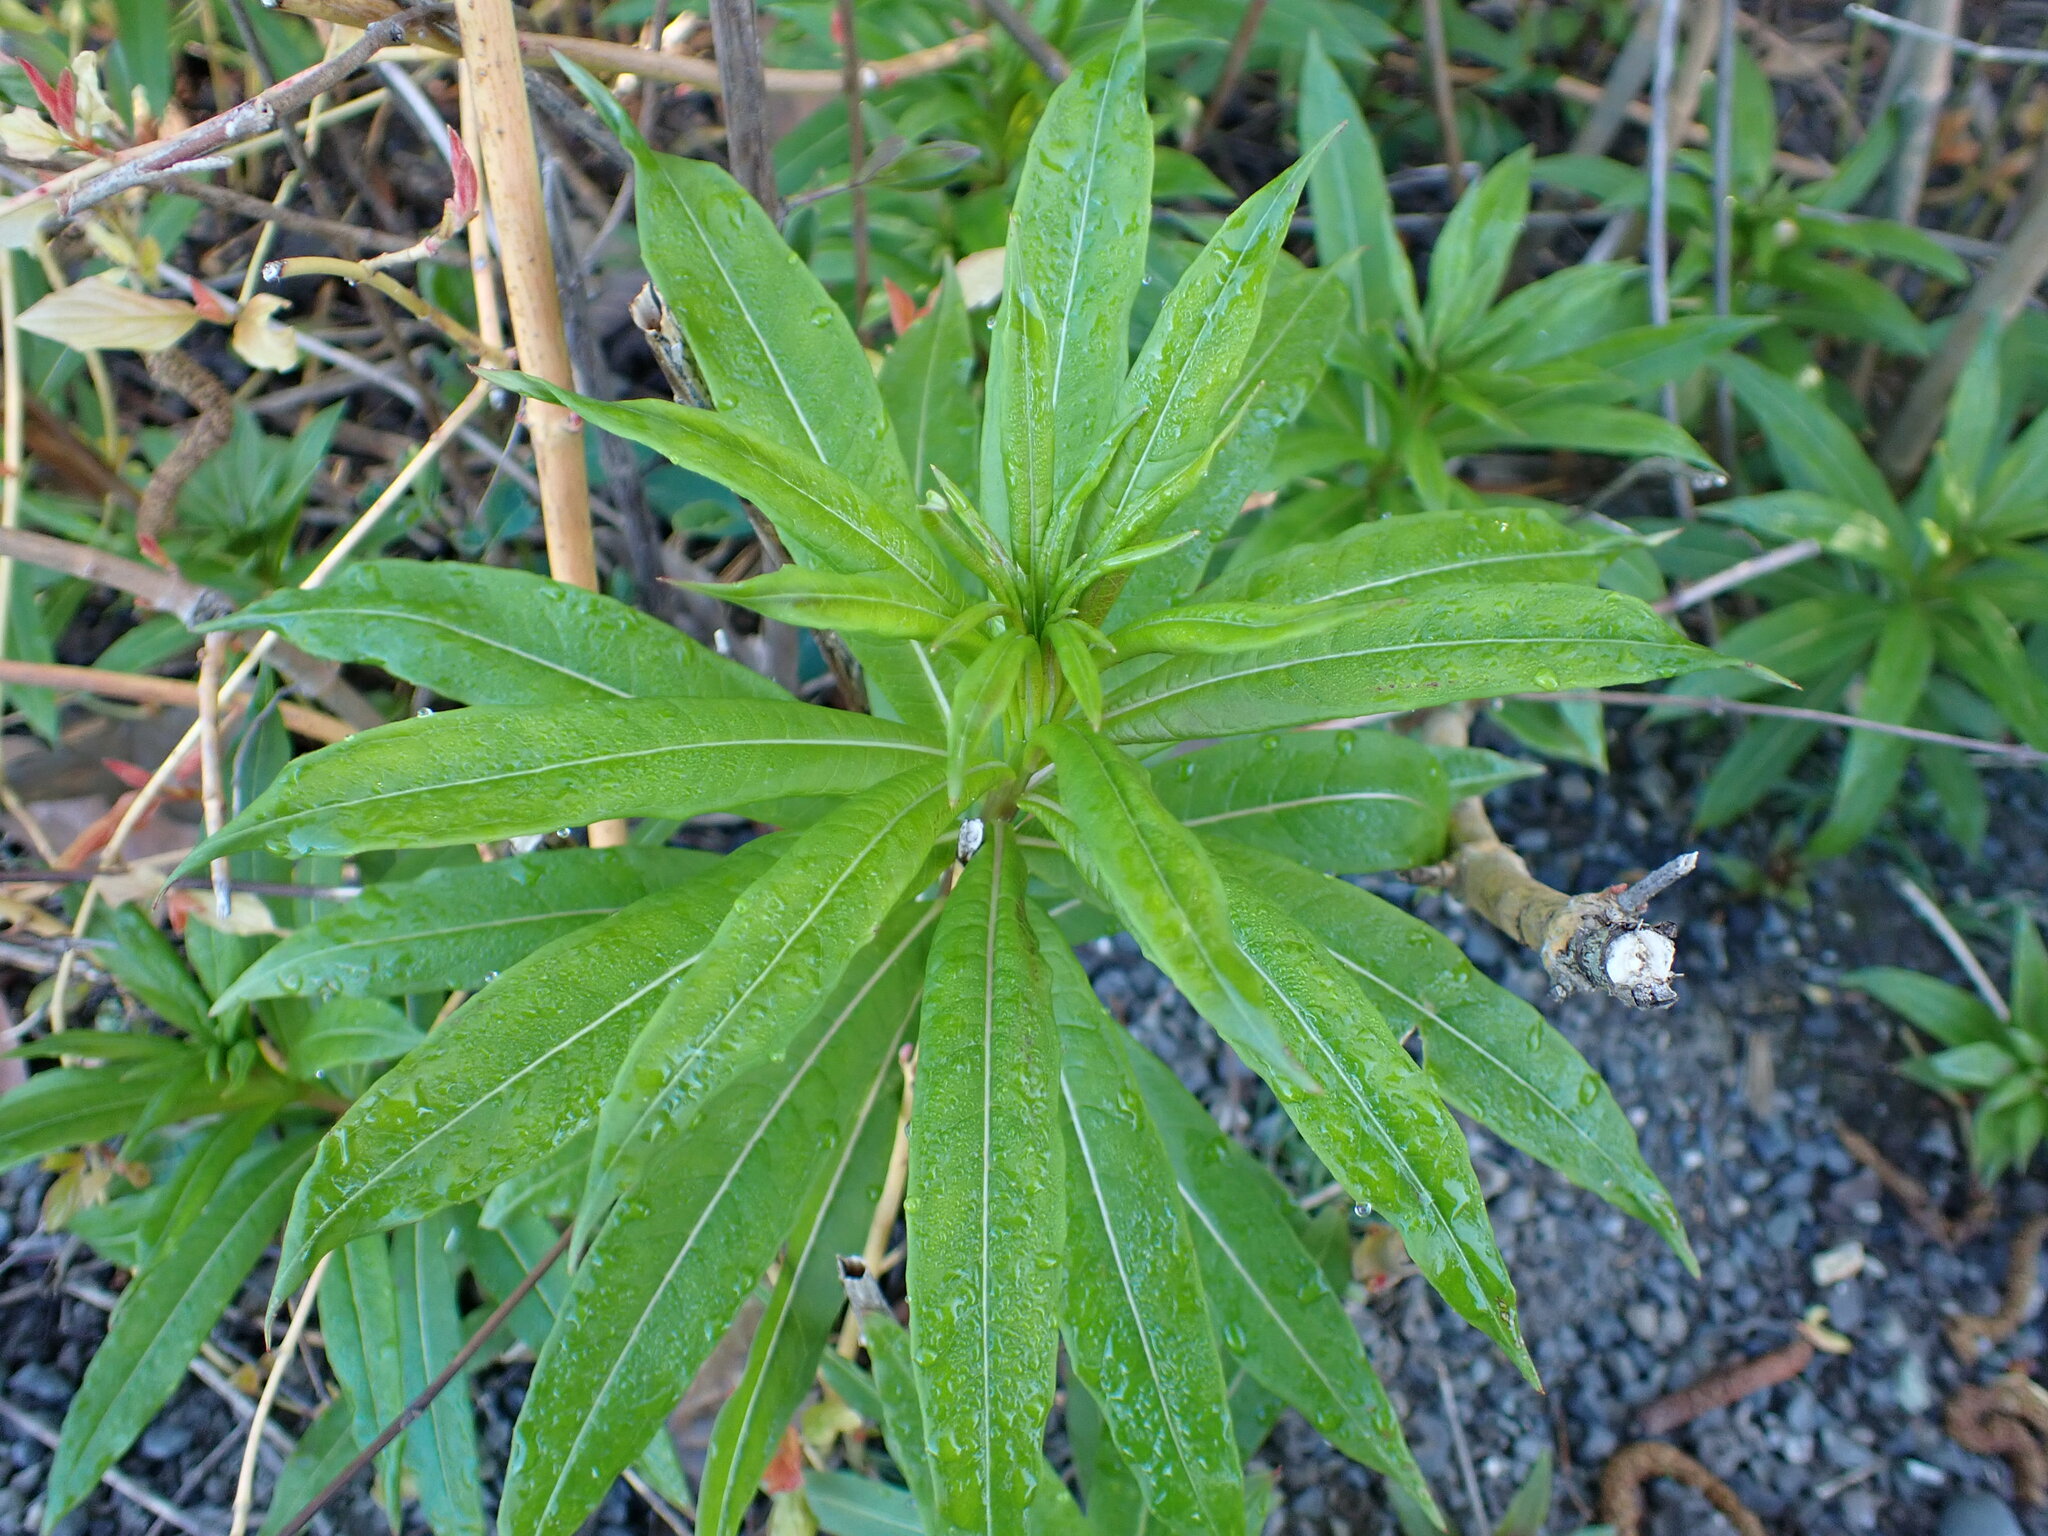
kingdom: Plantae
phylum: Tracheophyta
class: Magnoliopsida
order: Myrtales
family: Onagraceae
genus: Chamaenerion
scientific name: Chamaenerion angustifolium
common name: Fireweed
